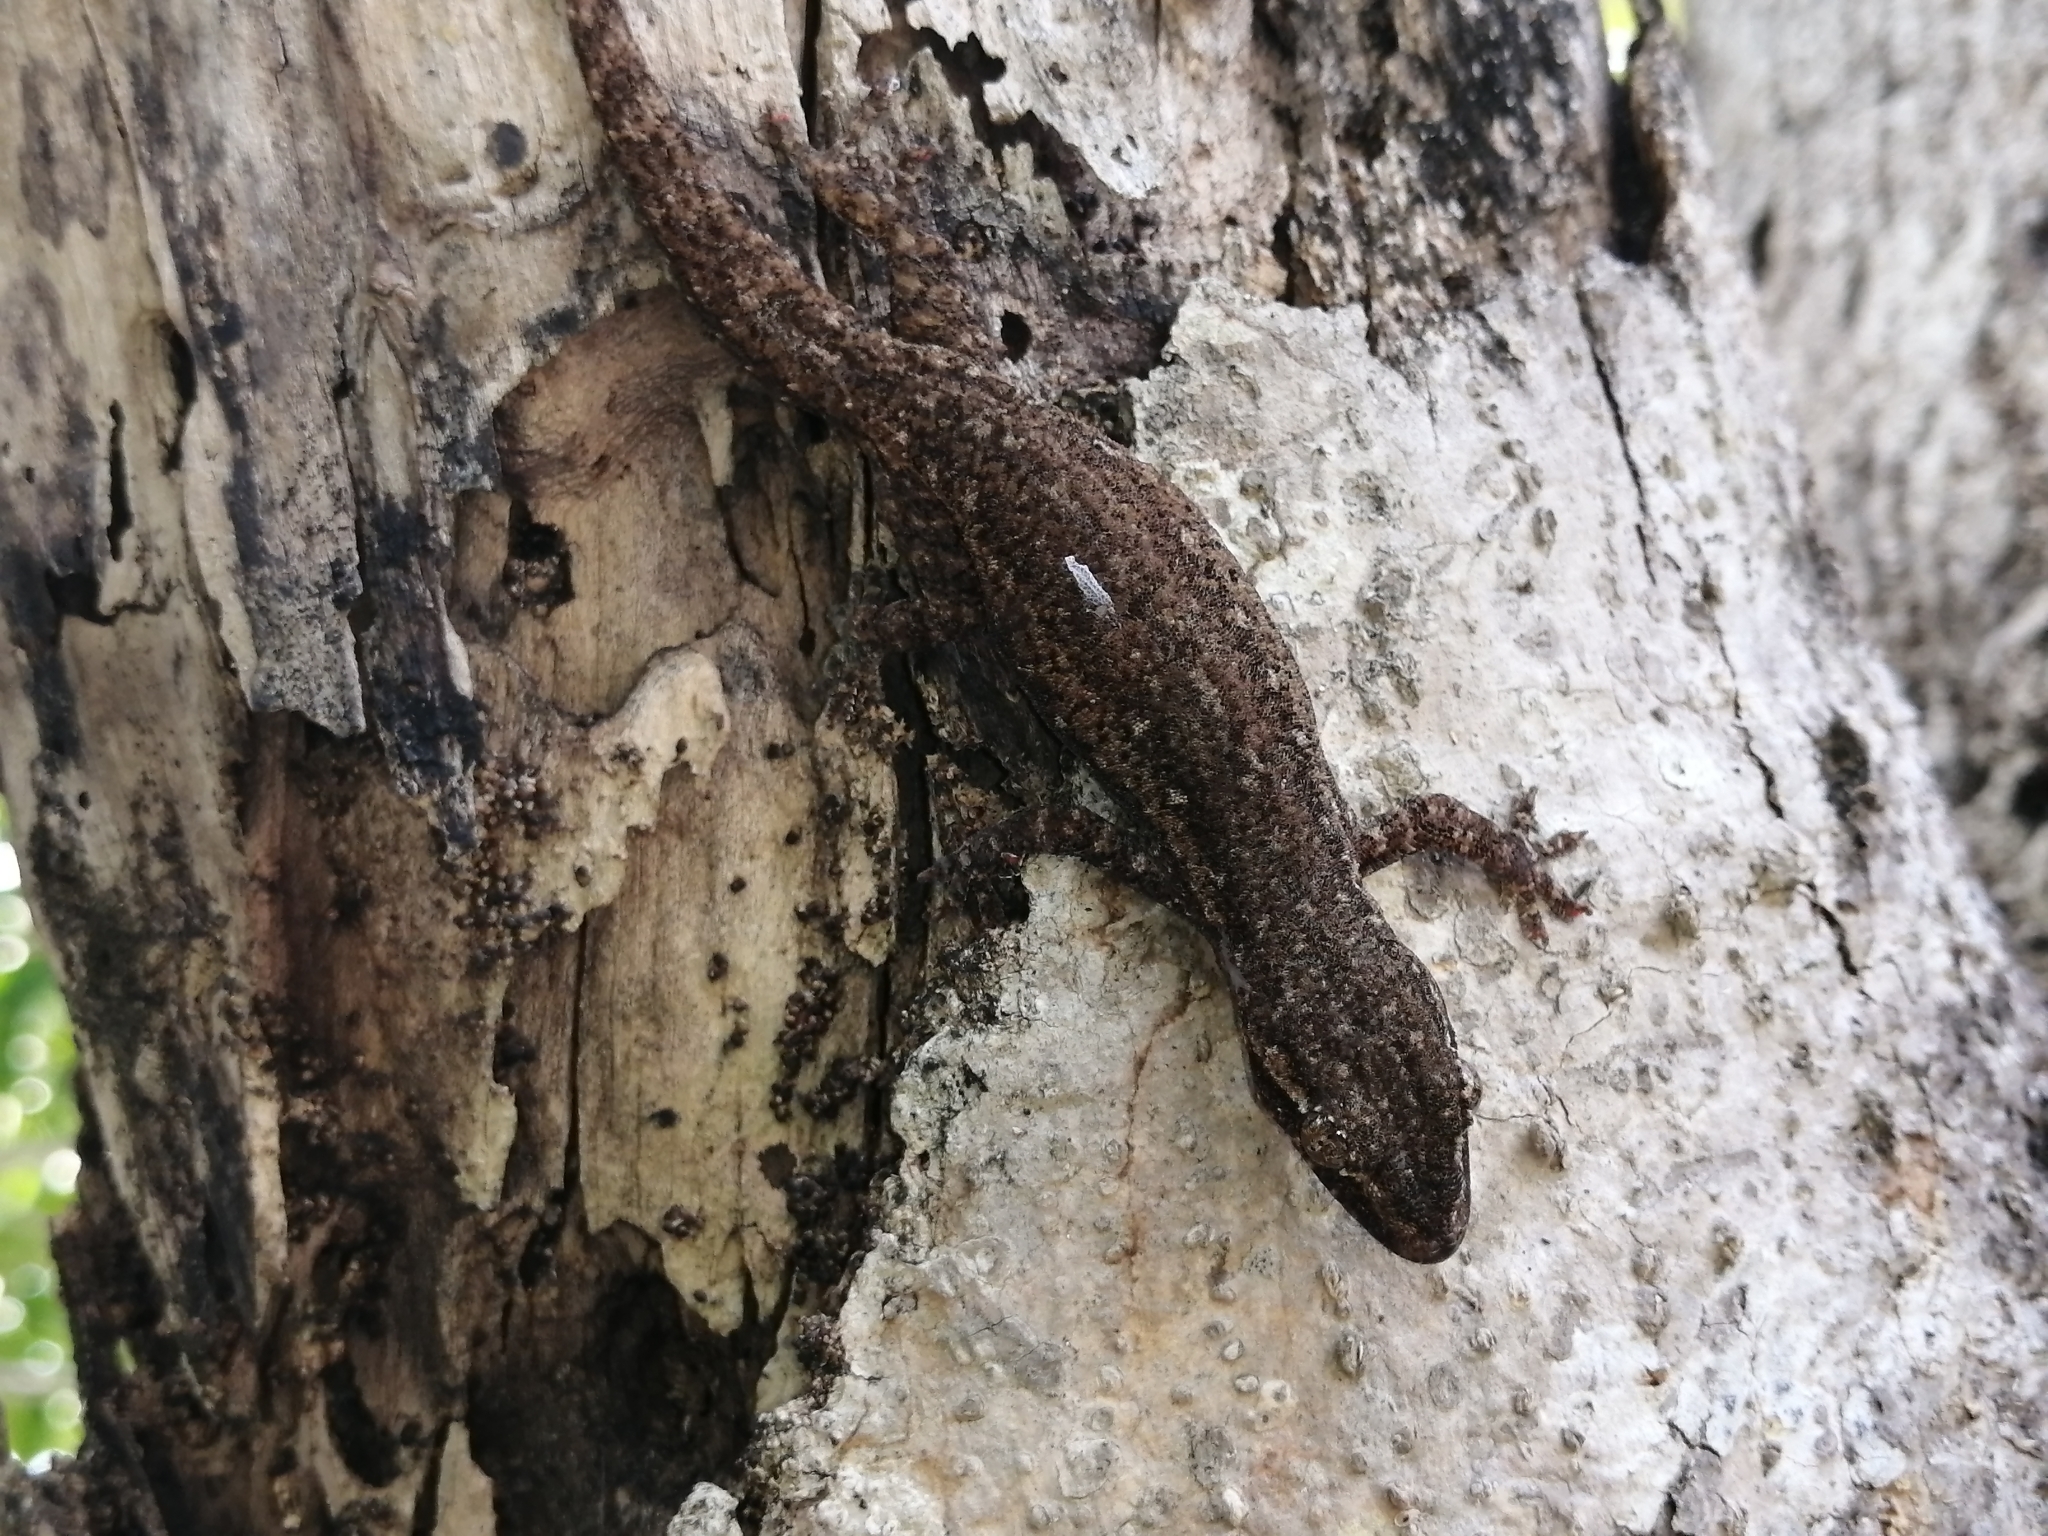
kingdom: Animalia
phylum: Chordata
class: Squamata
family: Gekkonidae
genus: Hemidactylus
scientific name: Hemidactylus frenatus
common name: Common house gecko
